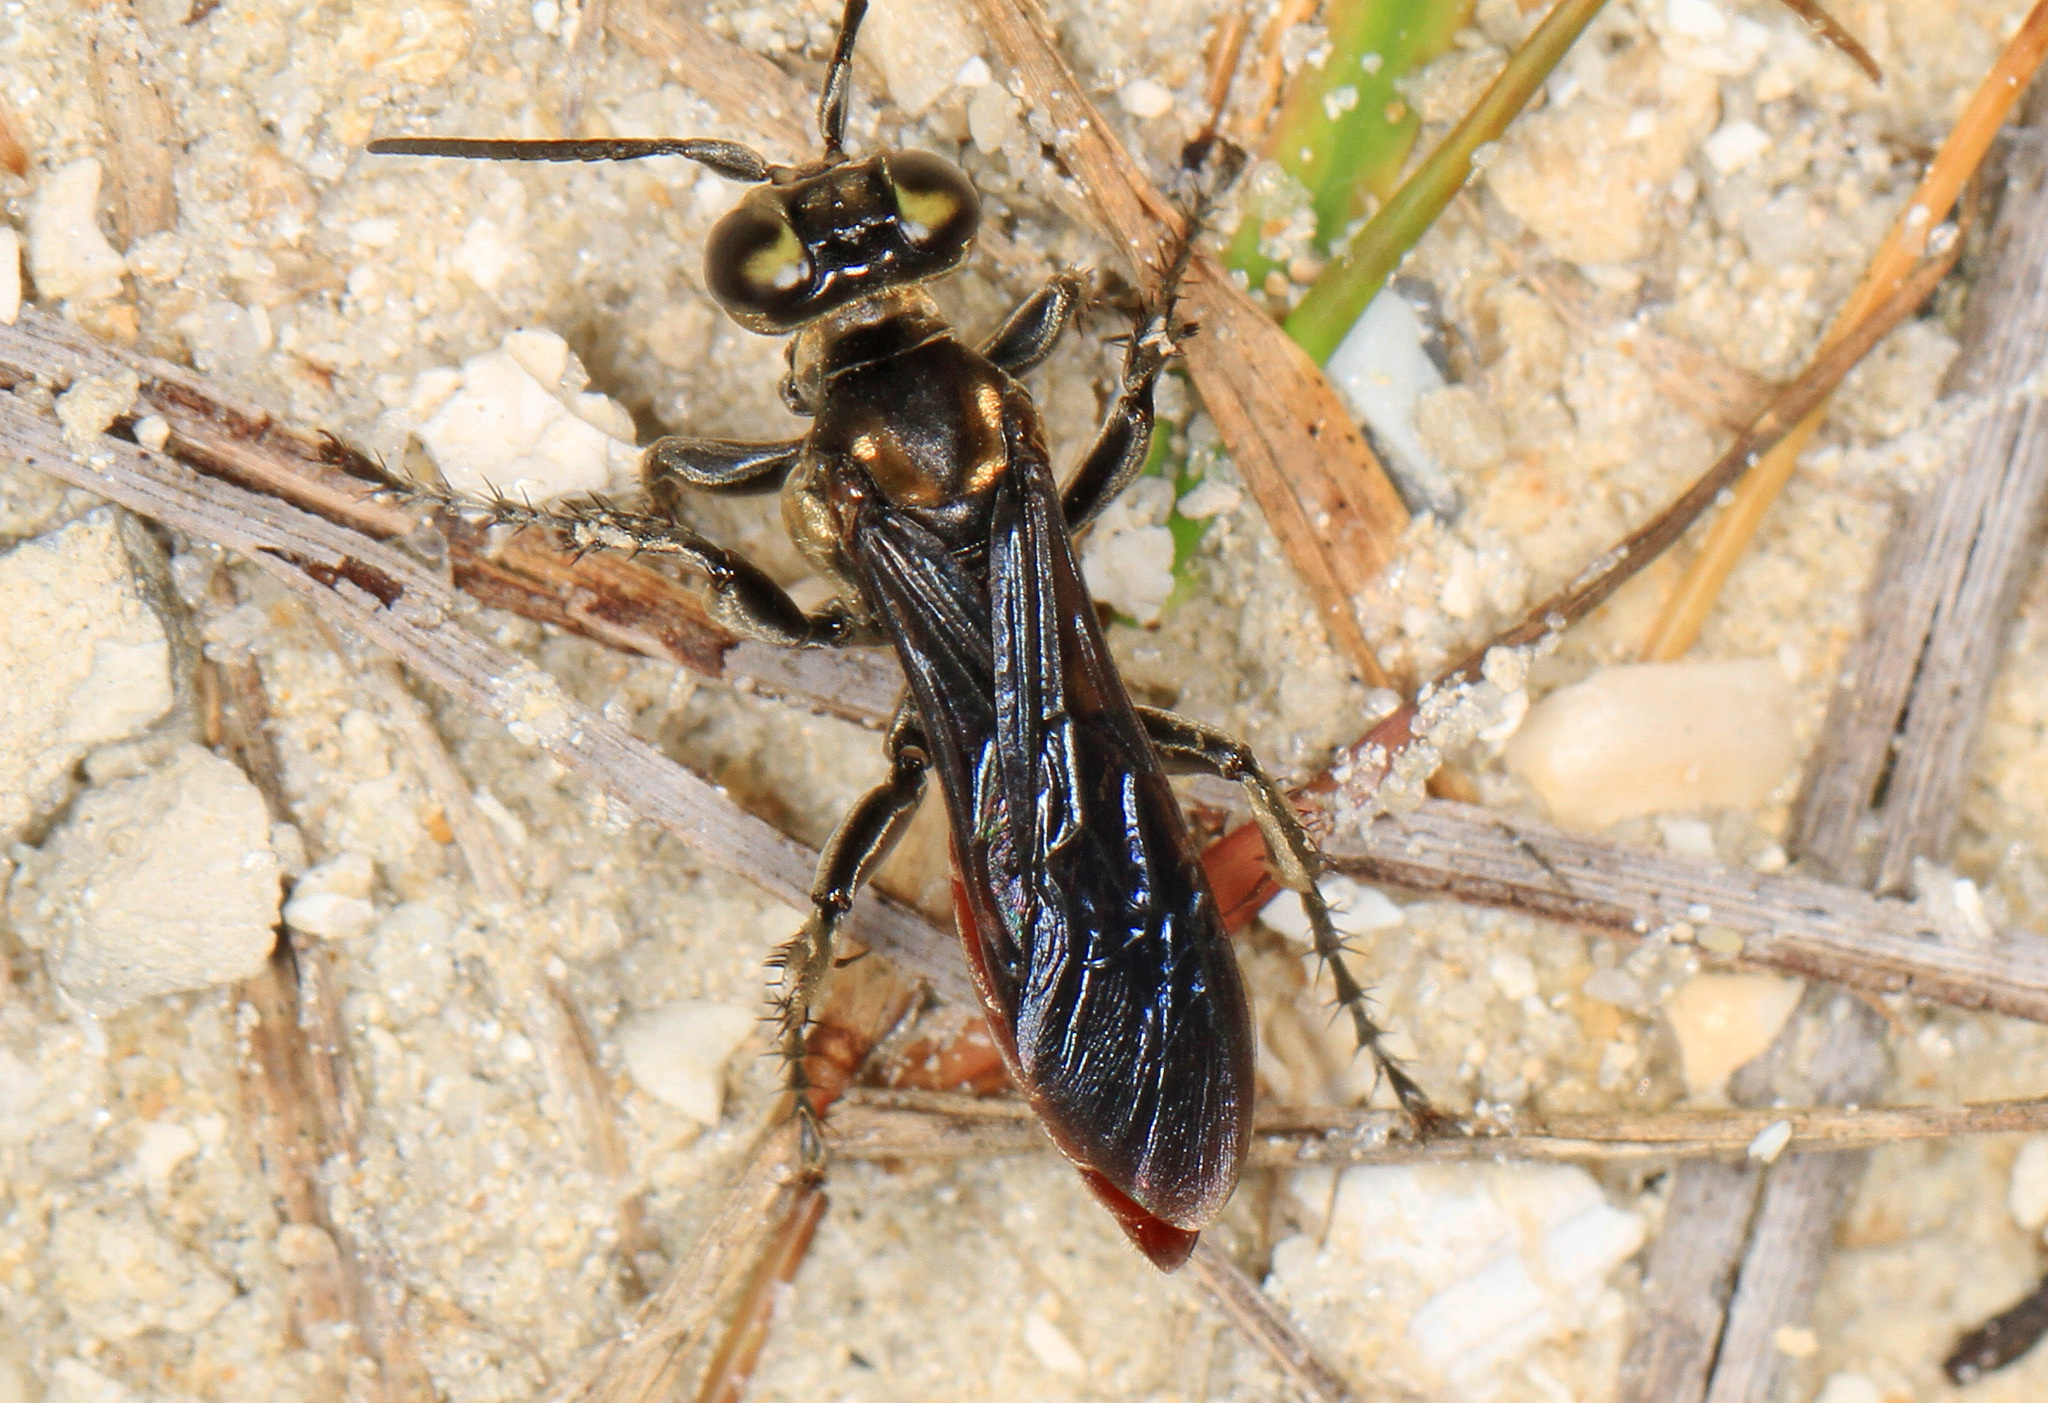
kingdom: Animalia
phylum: Arthropoda
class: Insecta
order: Hymenoptera
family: Crabronidae
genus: Larra
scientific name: Larra bicolor
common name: Wasp
